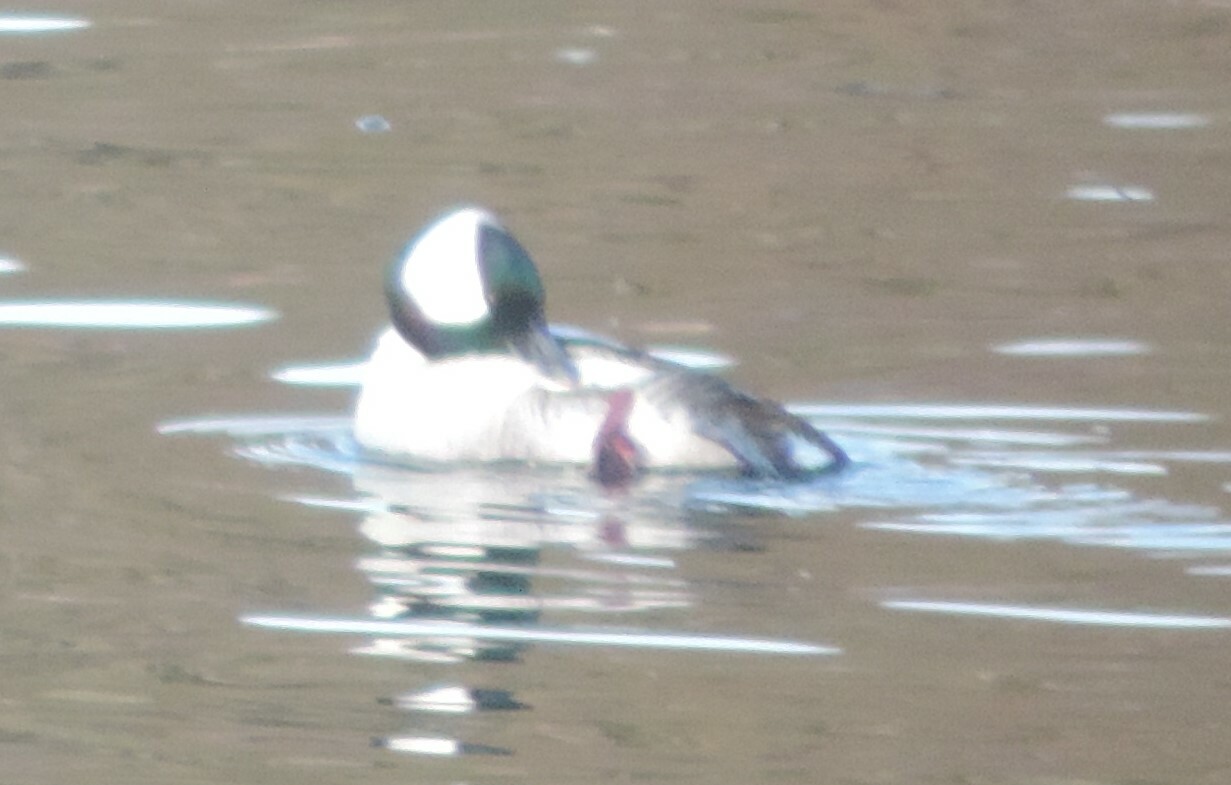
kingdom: Animalia
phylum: Chordata
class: Aves
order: Anseriformes
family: Anatidae
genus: Bucephala
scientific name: Bucephala albeola
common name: Bufflehead
